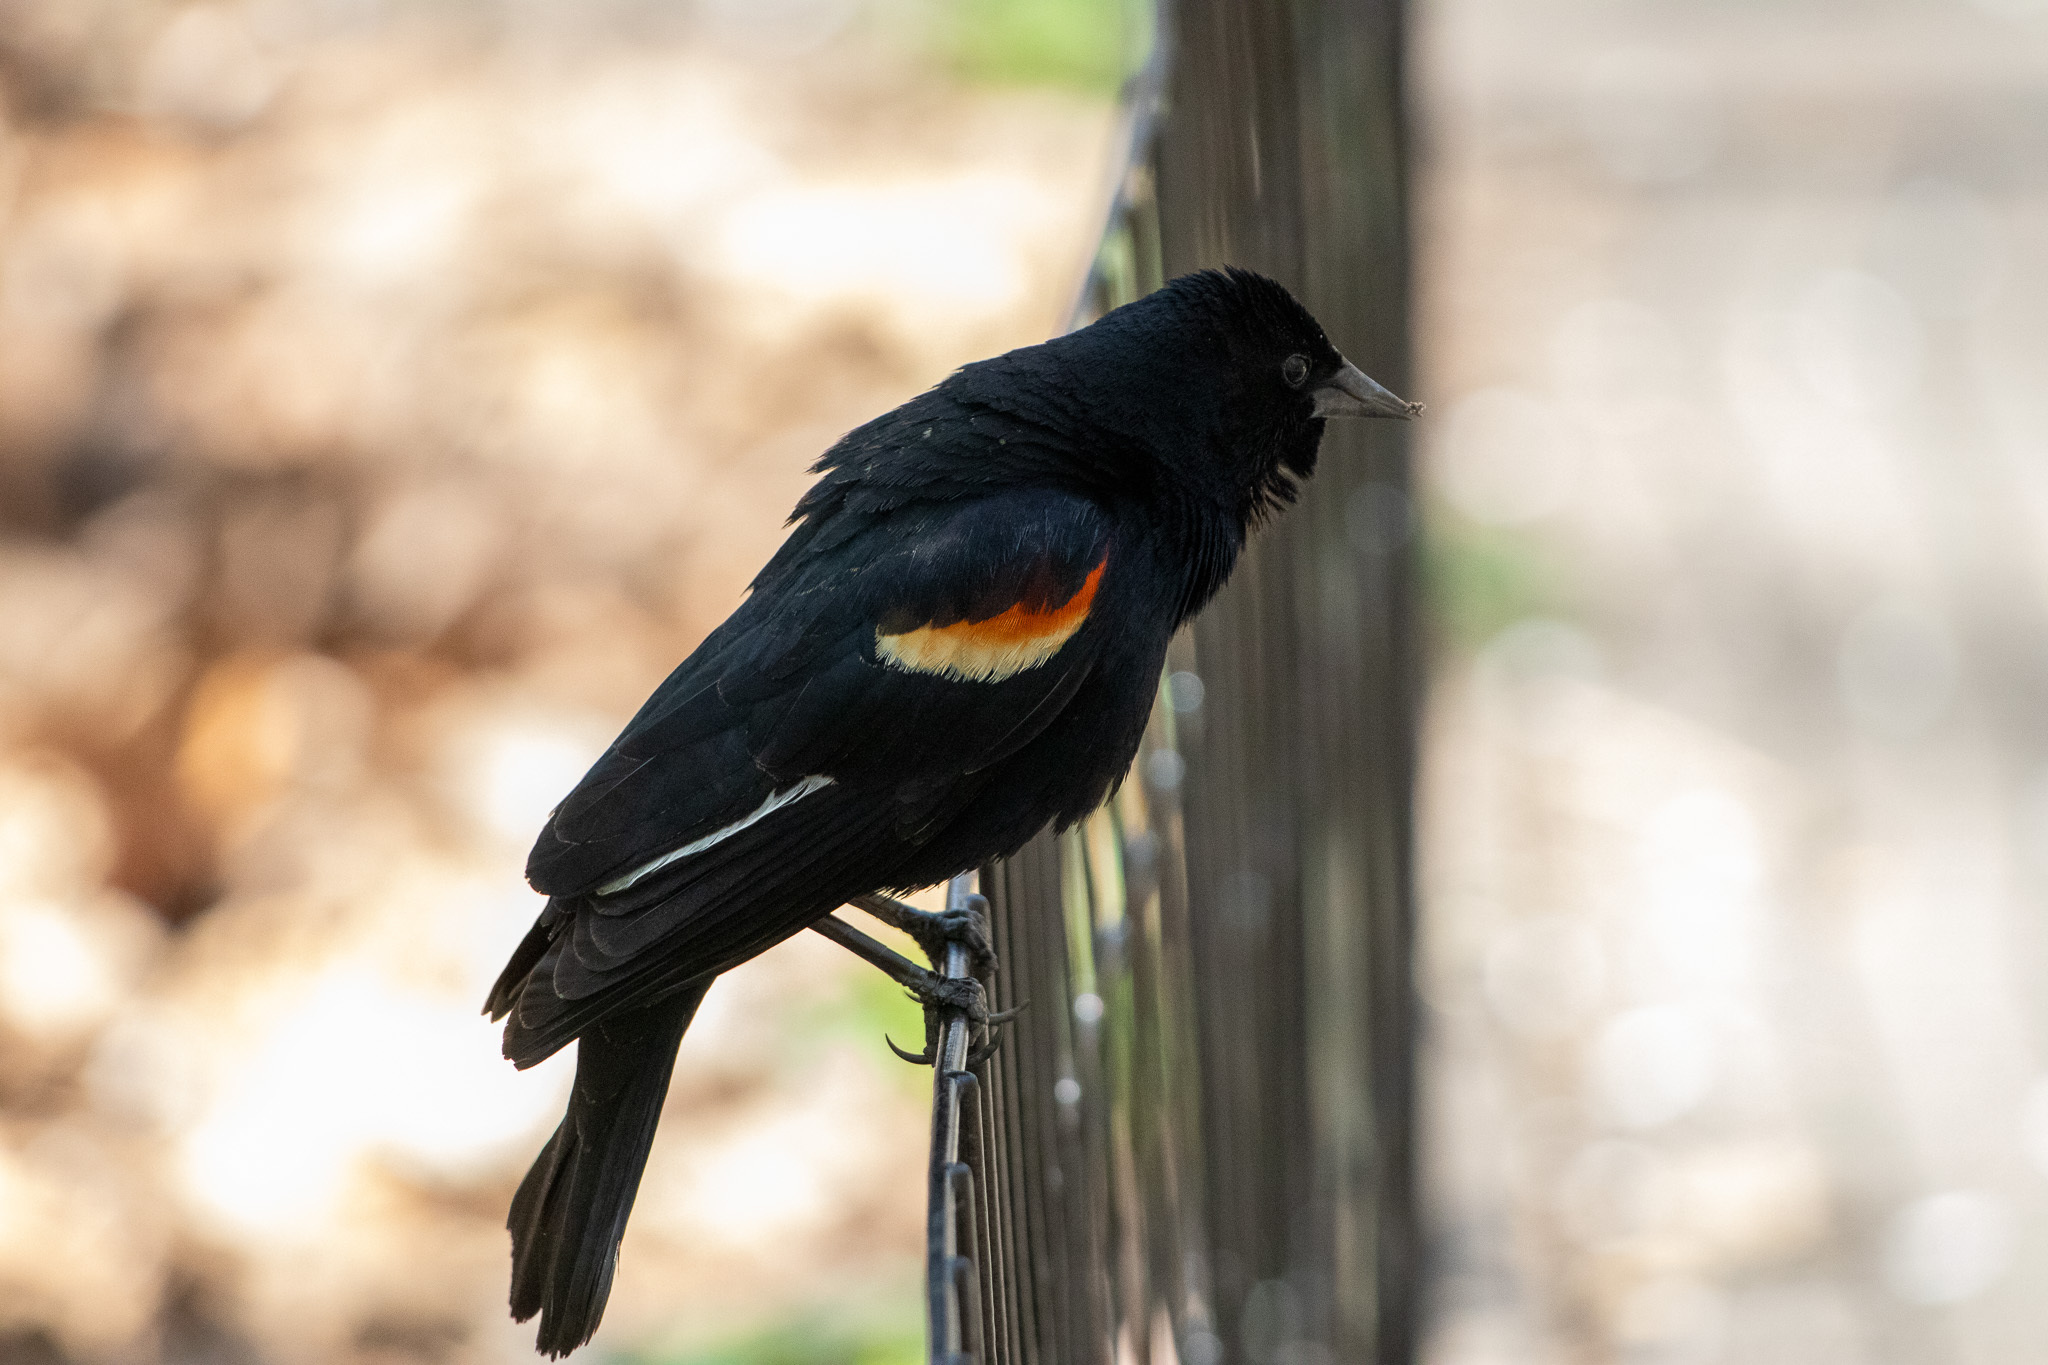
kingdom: Animalia
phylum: Chordata
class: Aves
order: Passeriformes
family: Icteridae
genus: Agelaius
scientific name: Agelaius phoeniceus
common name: Red-winged blackbird
